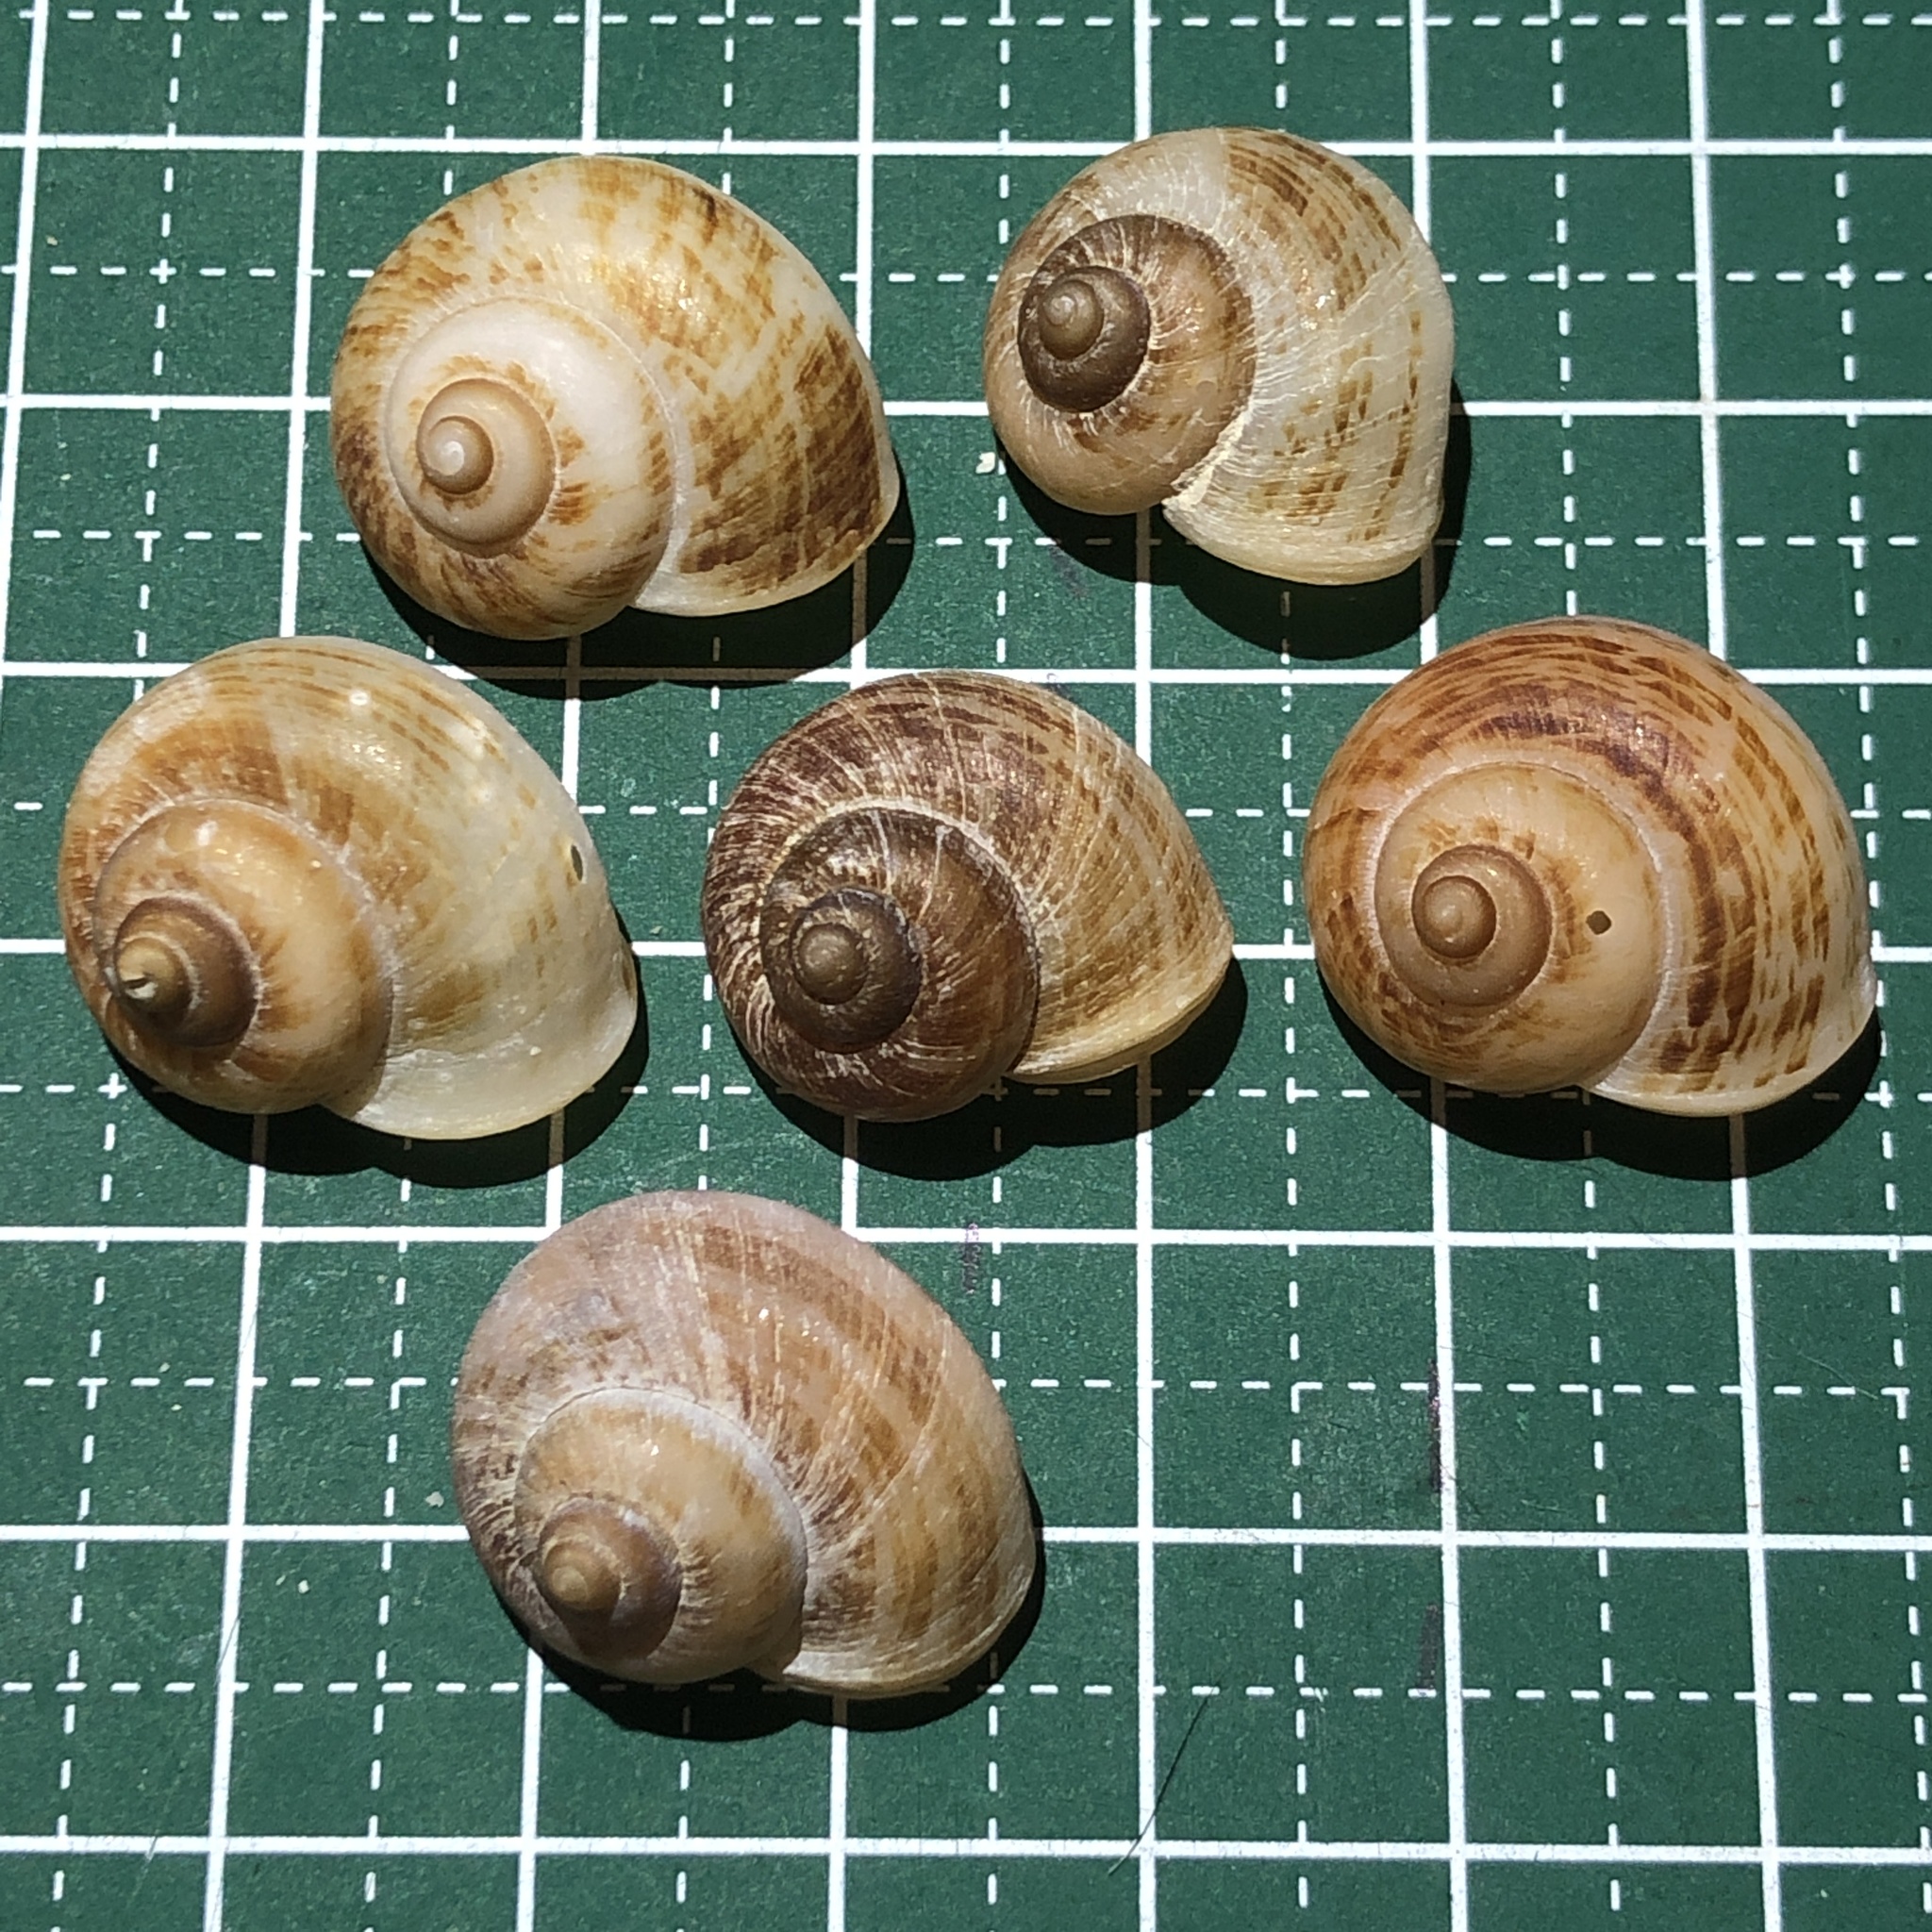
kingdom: Animalia
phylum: Mollusca
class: Gastropoda
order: Architaenioglossa
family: Cyclophoridae
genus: Cyclophorus
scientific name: Cyclophorus turgidus
